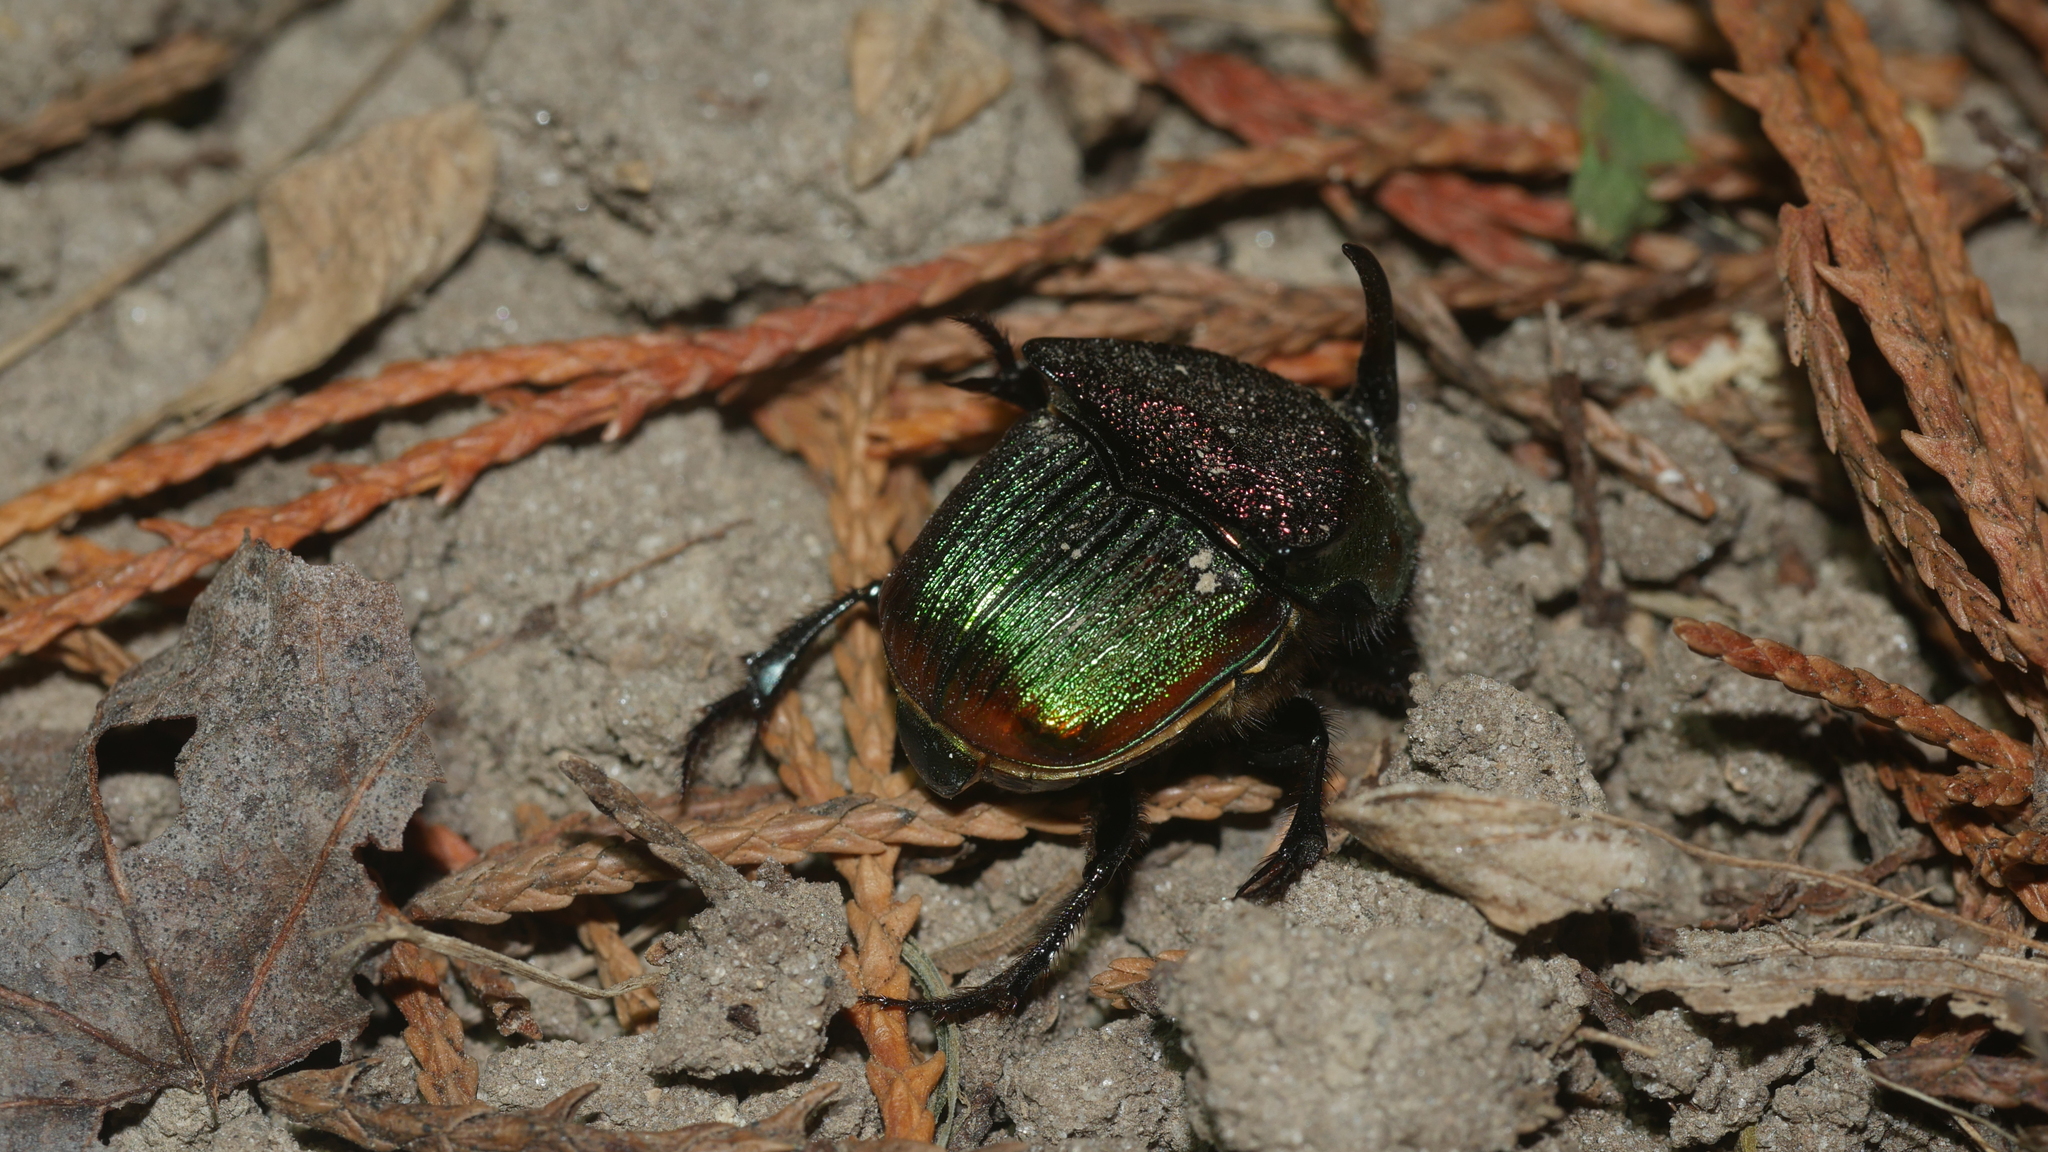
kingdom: Animalia
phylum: Arthropoda
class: Insecta
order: Coleoptera
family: Scarabaeidae
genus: Phanaeus
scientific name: Phanaeus vindex
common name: Rainbow scarab
